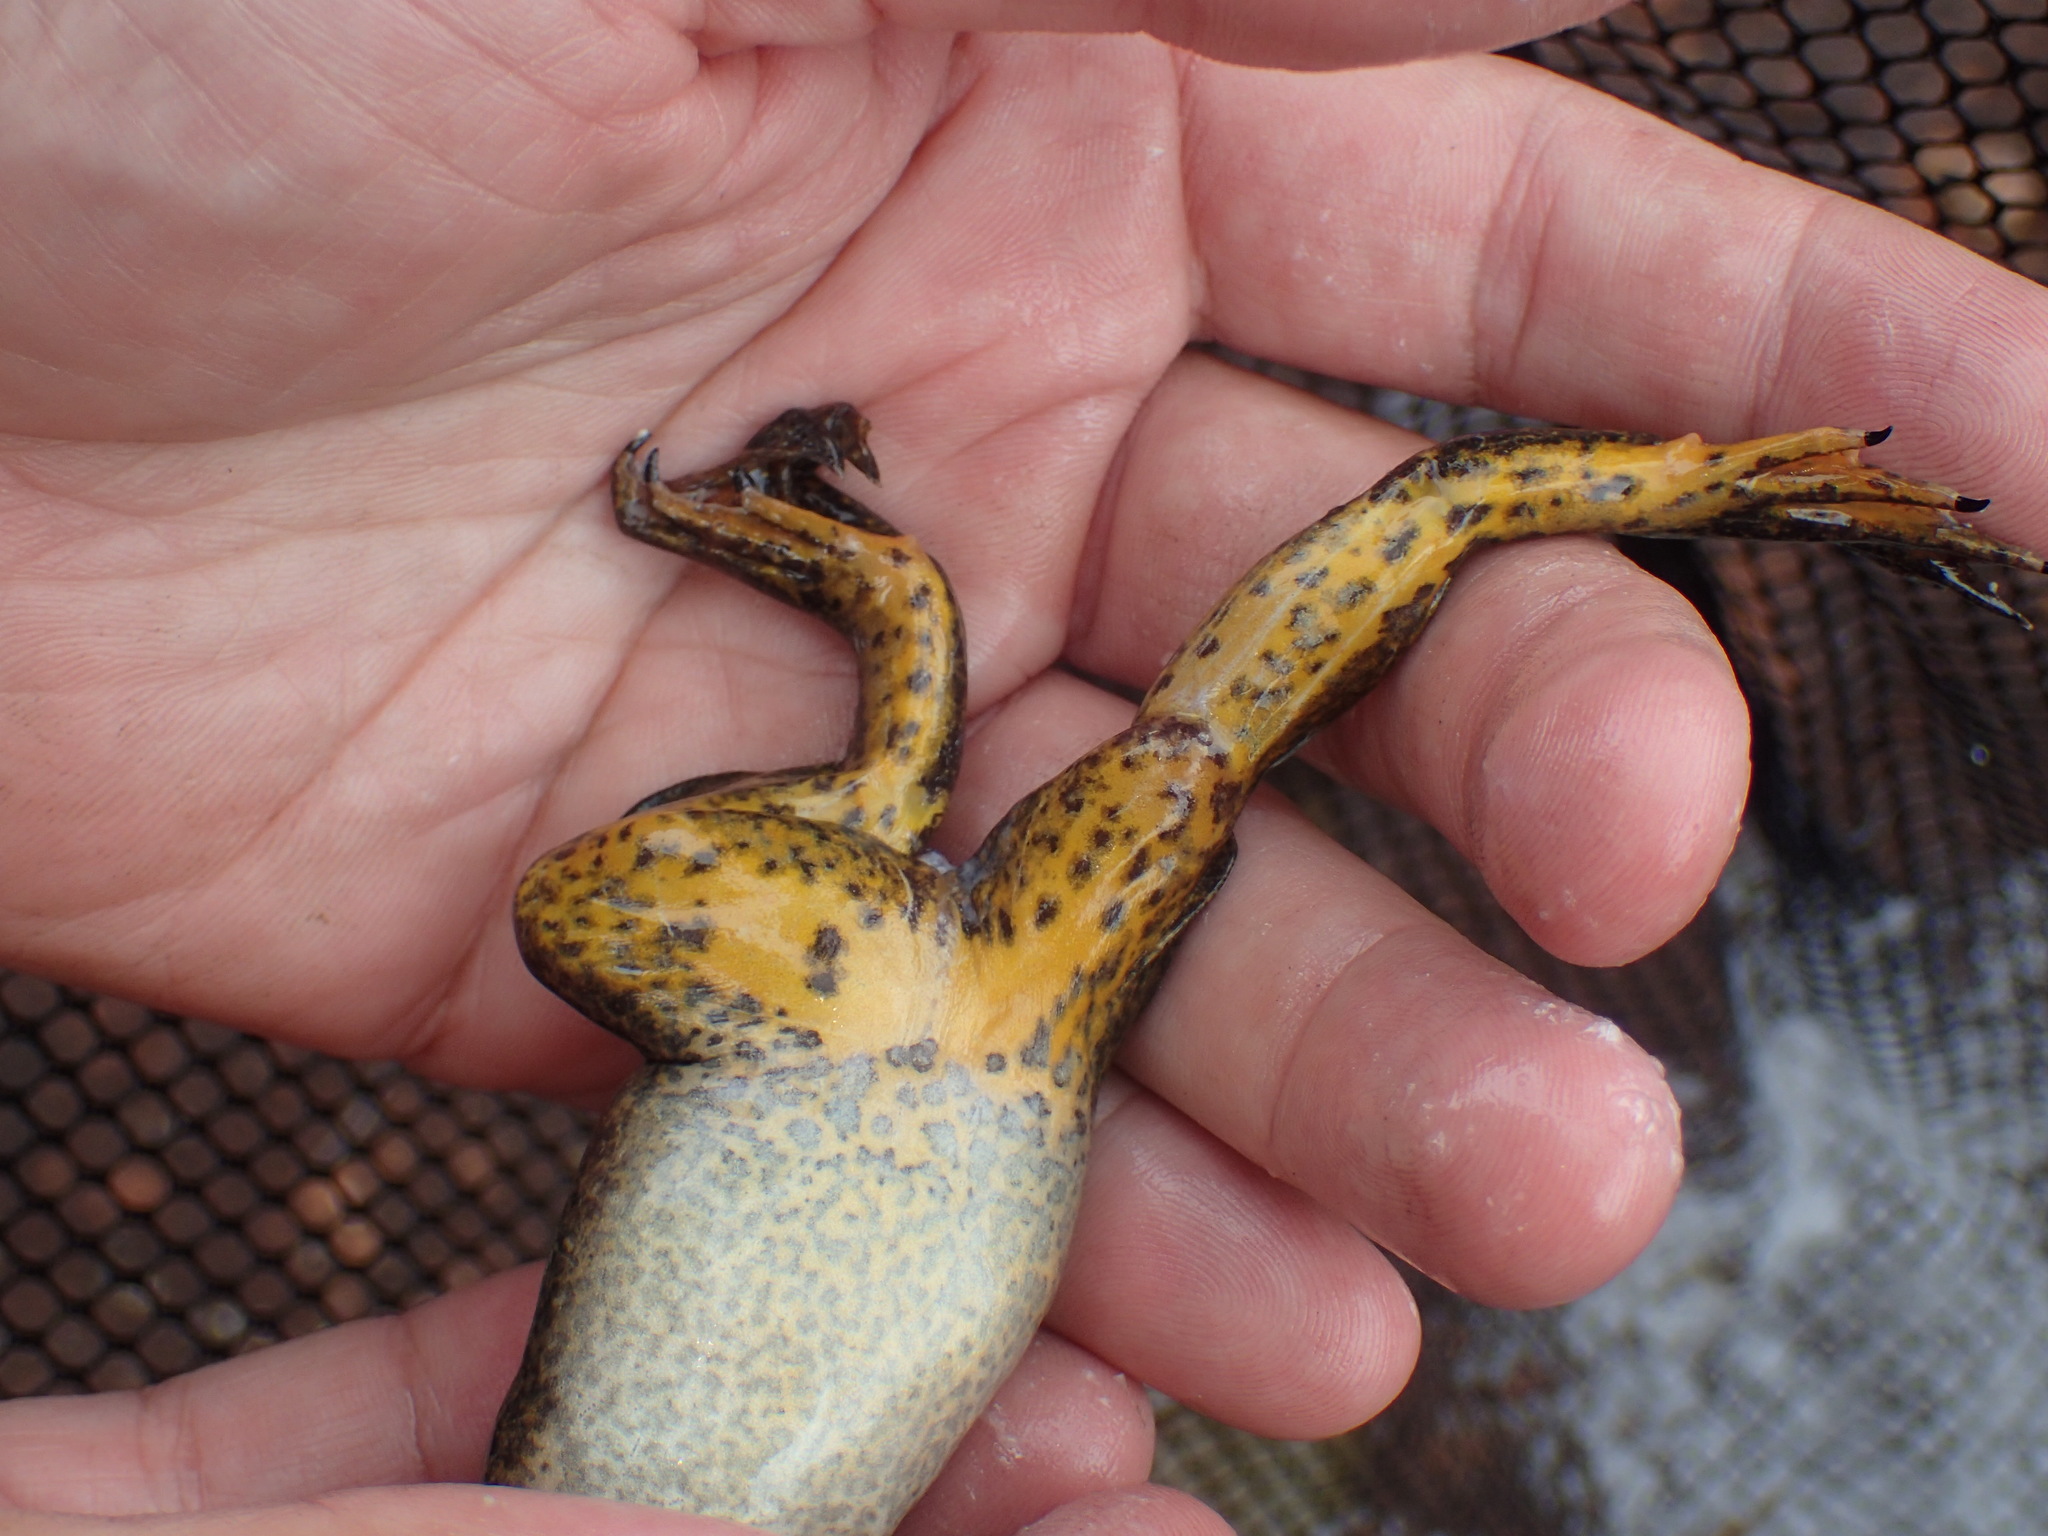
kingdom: Animalia
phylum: Chordata
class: Amphibia
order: Anura
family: Pipidae
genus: Xenopus
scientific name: Xenopus poweri
